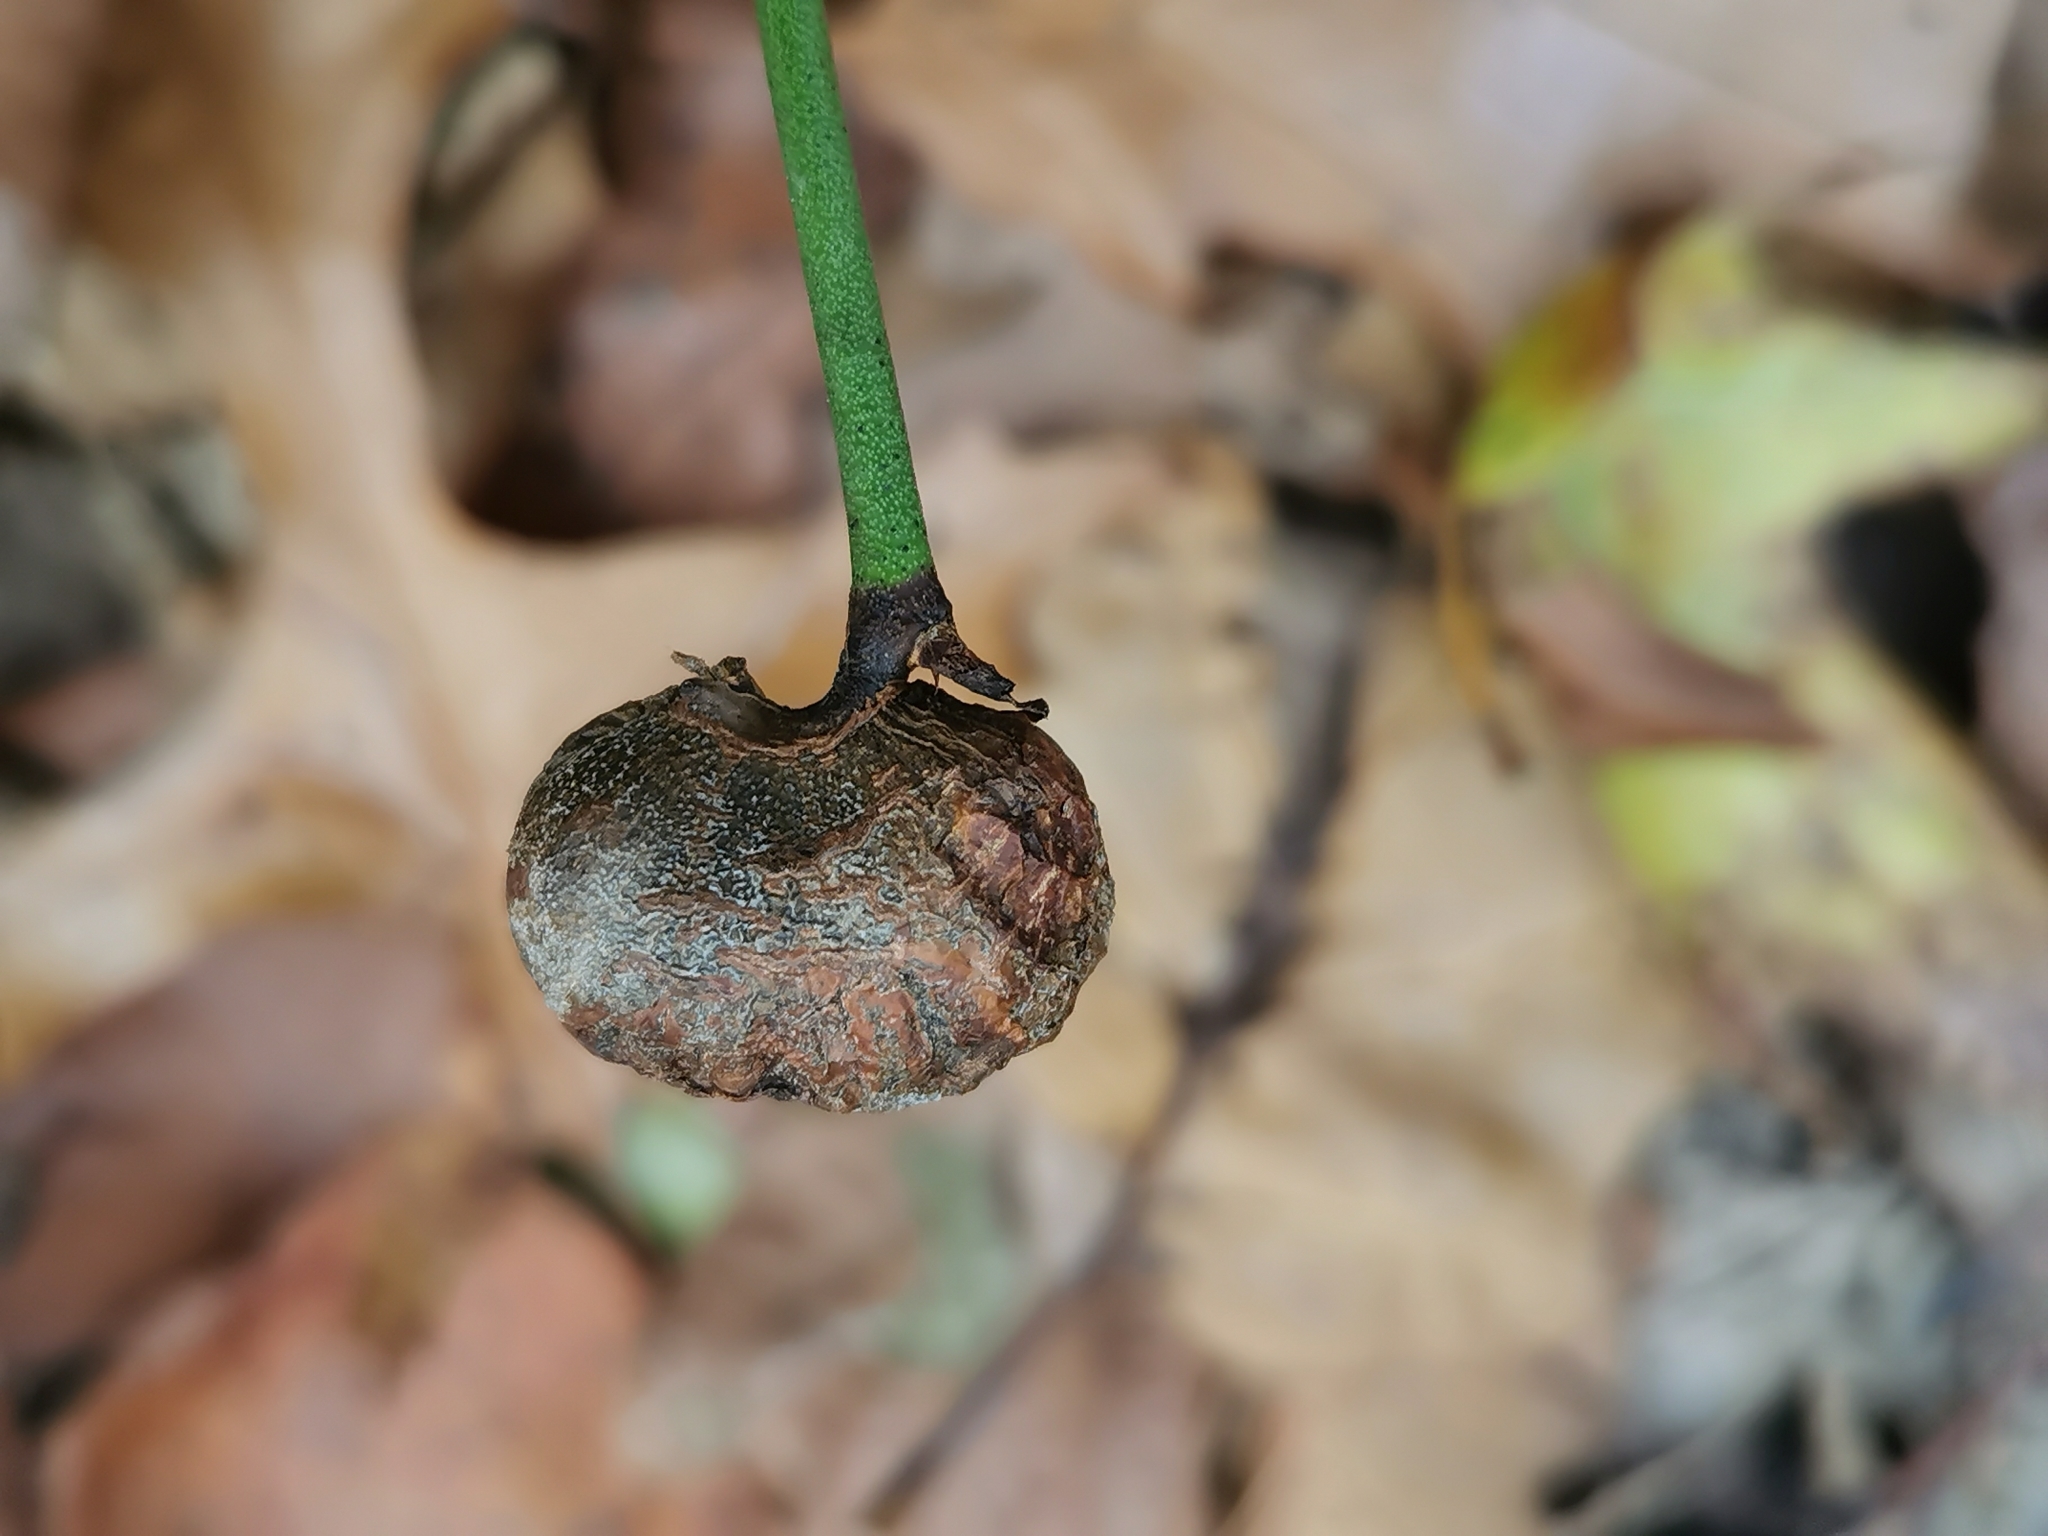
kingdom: Animalia
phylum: Arthropoda
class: Insecta
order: Hymenoptera
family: Pteromalidae
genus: Hemadas
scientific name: Hemadas nubilipennis
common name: Blueberry stem gall wasp
